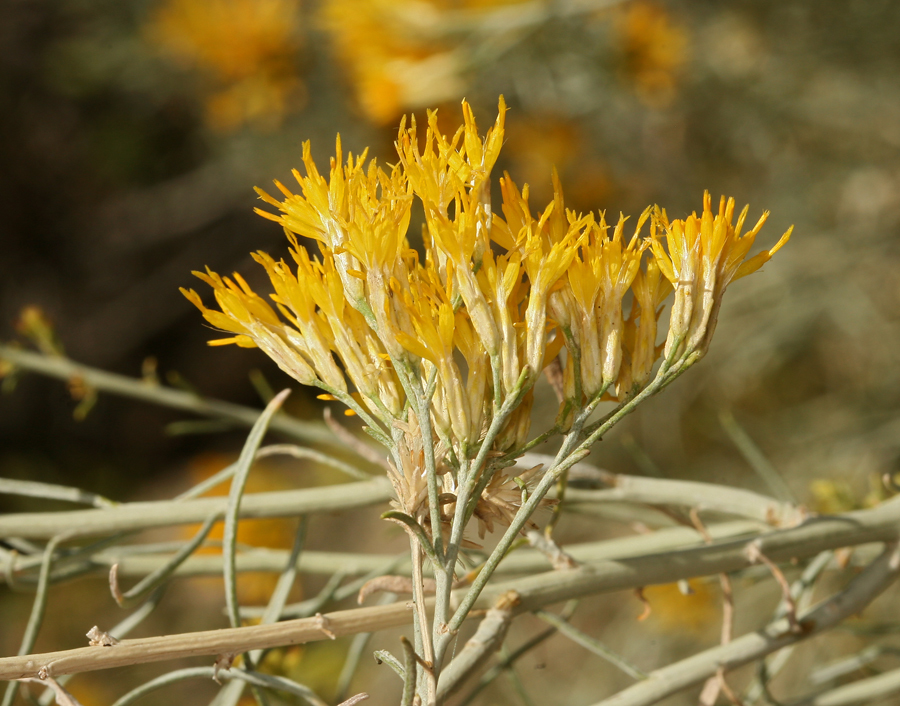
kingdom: Plantae
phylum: Tracheophyta
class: Magnoliopsida
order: Asterales
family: Asteraceae
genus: Ericameria
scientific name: Ericameria nauseosa
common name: Rubber rabbitbrush
